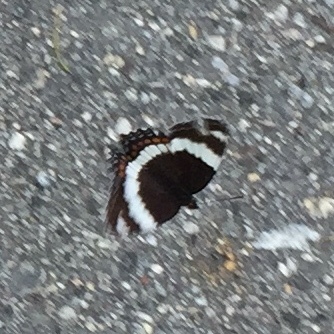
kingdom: Animalia
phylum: Arthropoda
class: Insecta
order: Lepidoptera
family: Nymphalidae
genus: Limenitis
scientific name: Limenitis arthemis
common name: Red-spotted admiral
